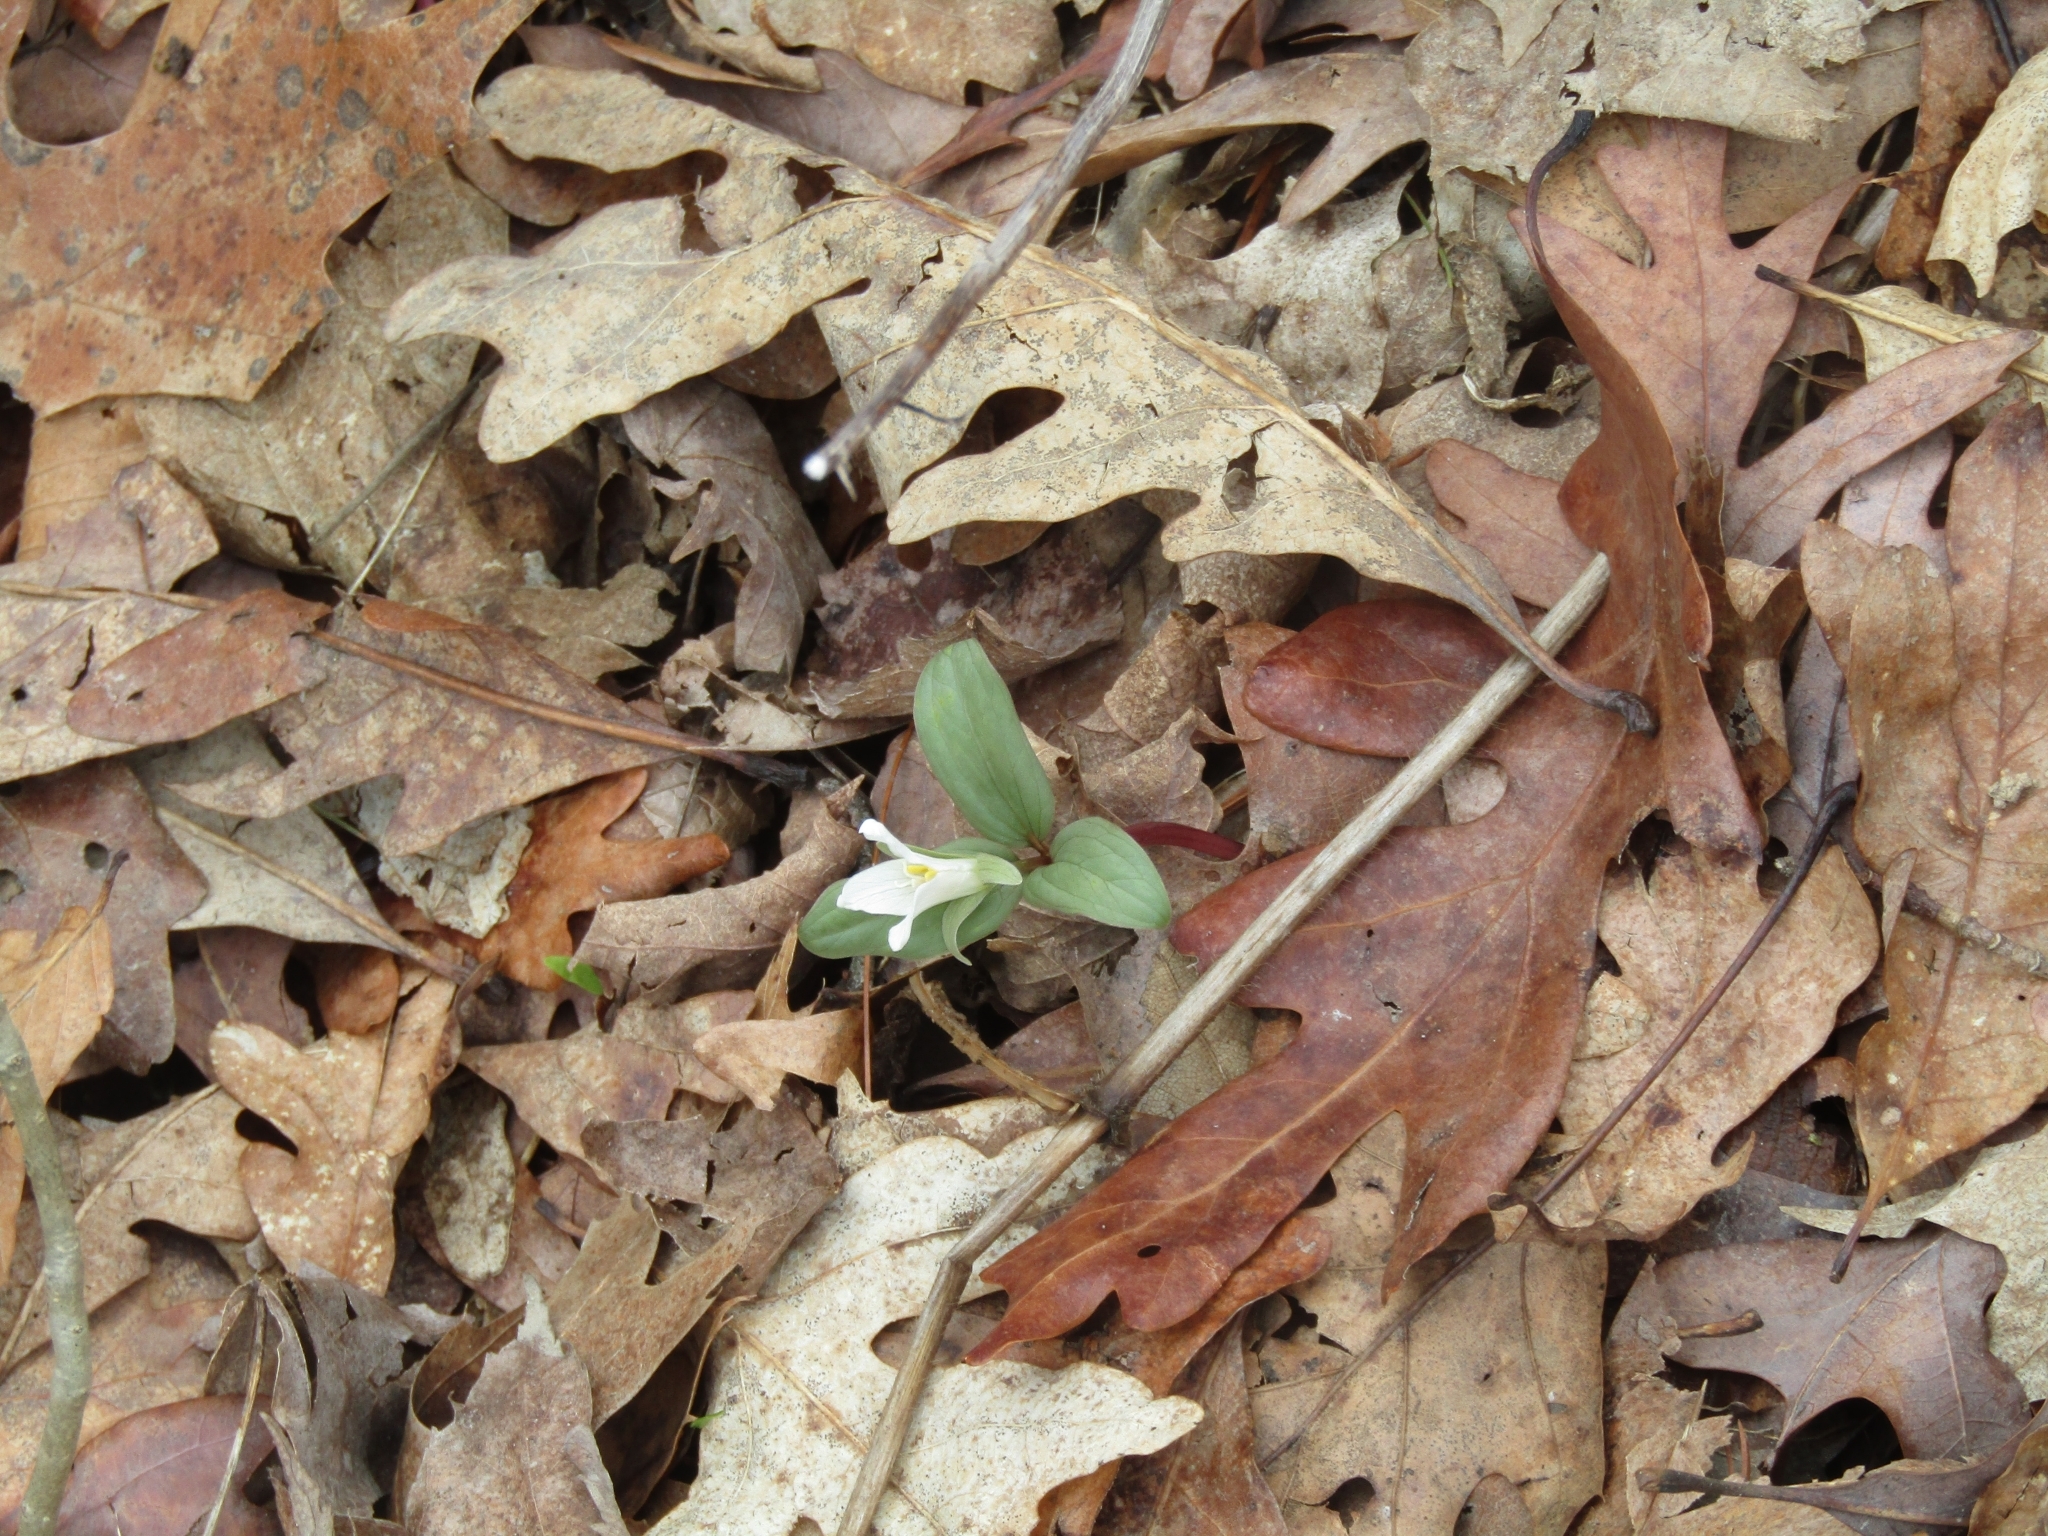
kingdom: Plantae
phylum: Tracheophyta
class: Liliopsida
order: Liliales
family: Melanthiaceae
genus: Trillium
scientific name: Trillium nivale
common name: Dwarf white trillium
